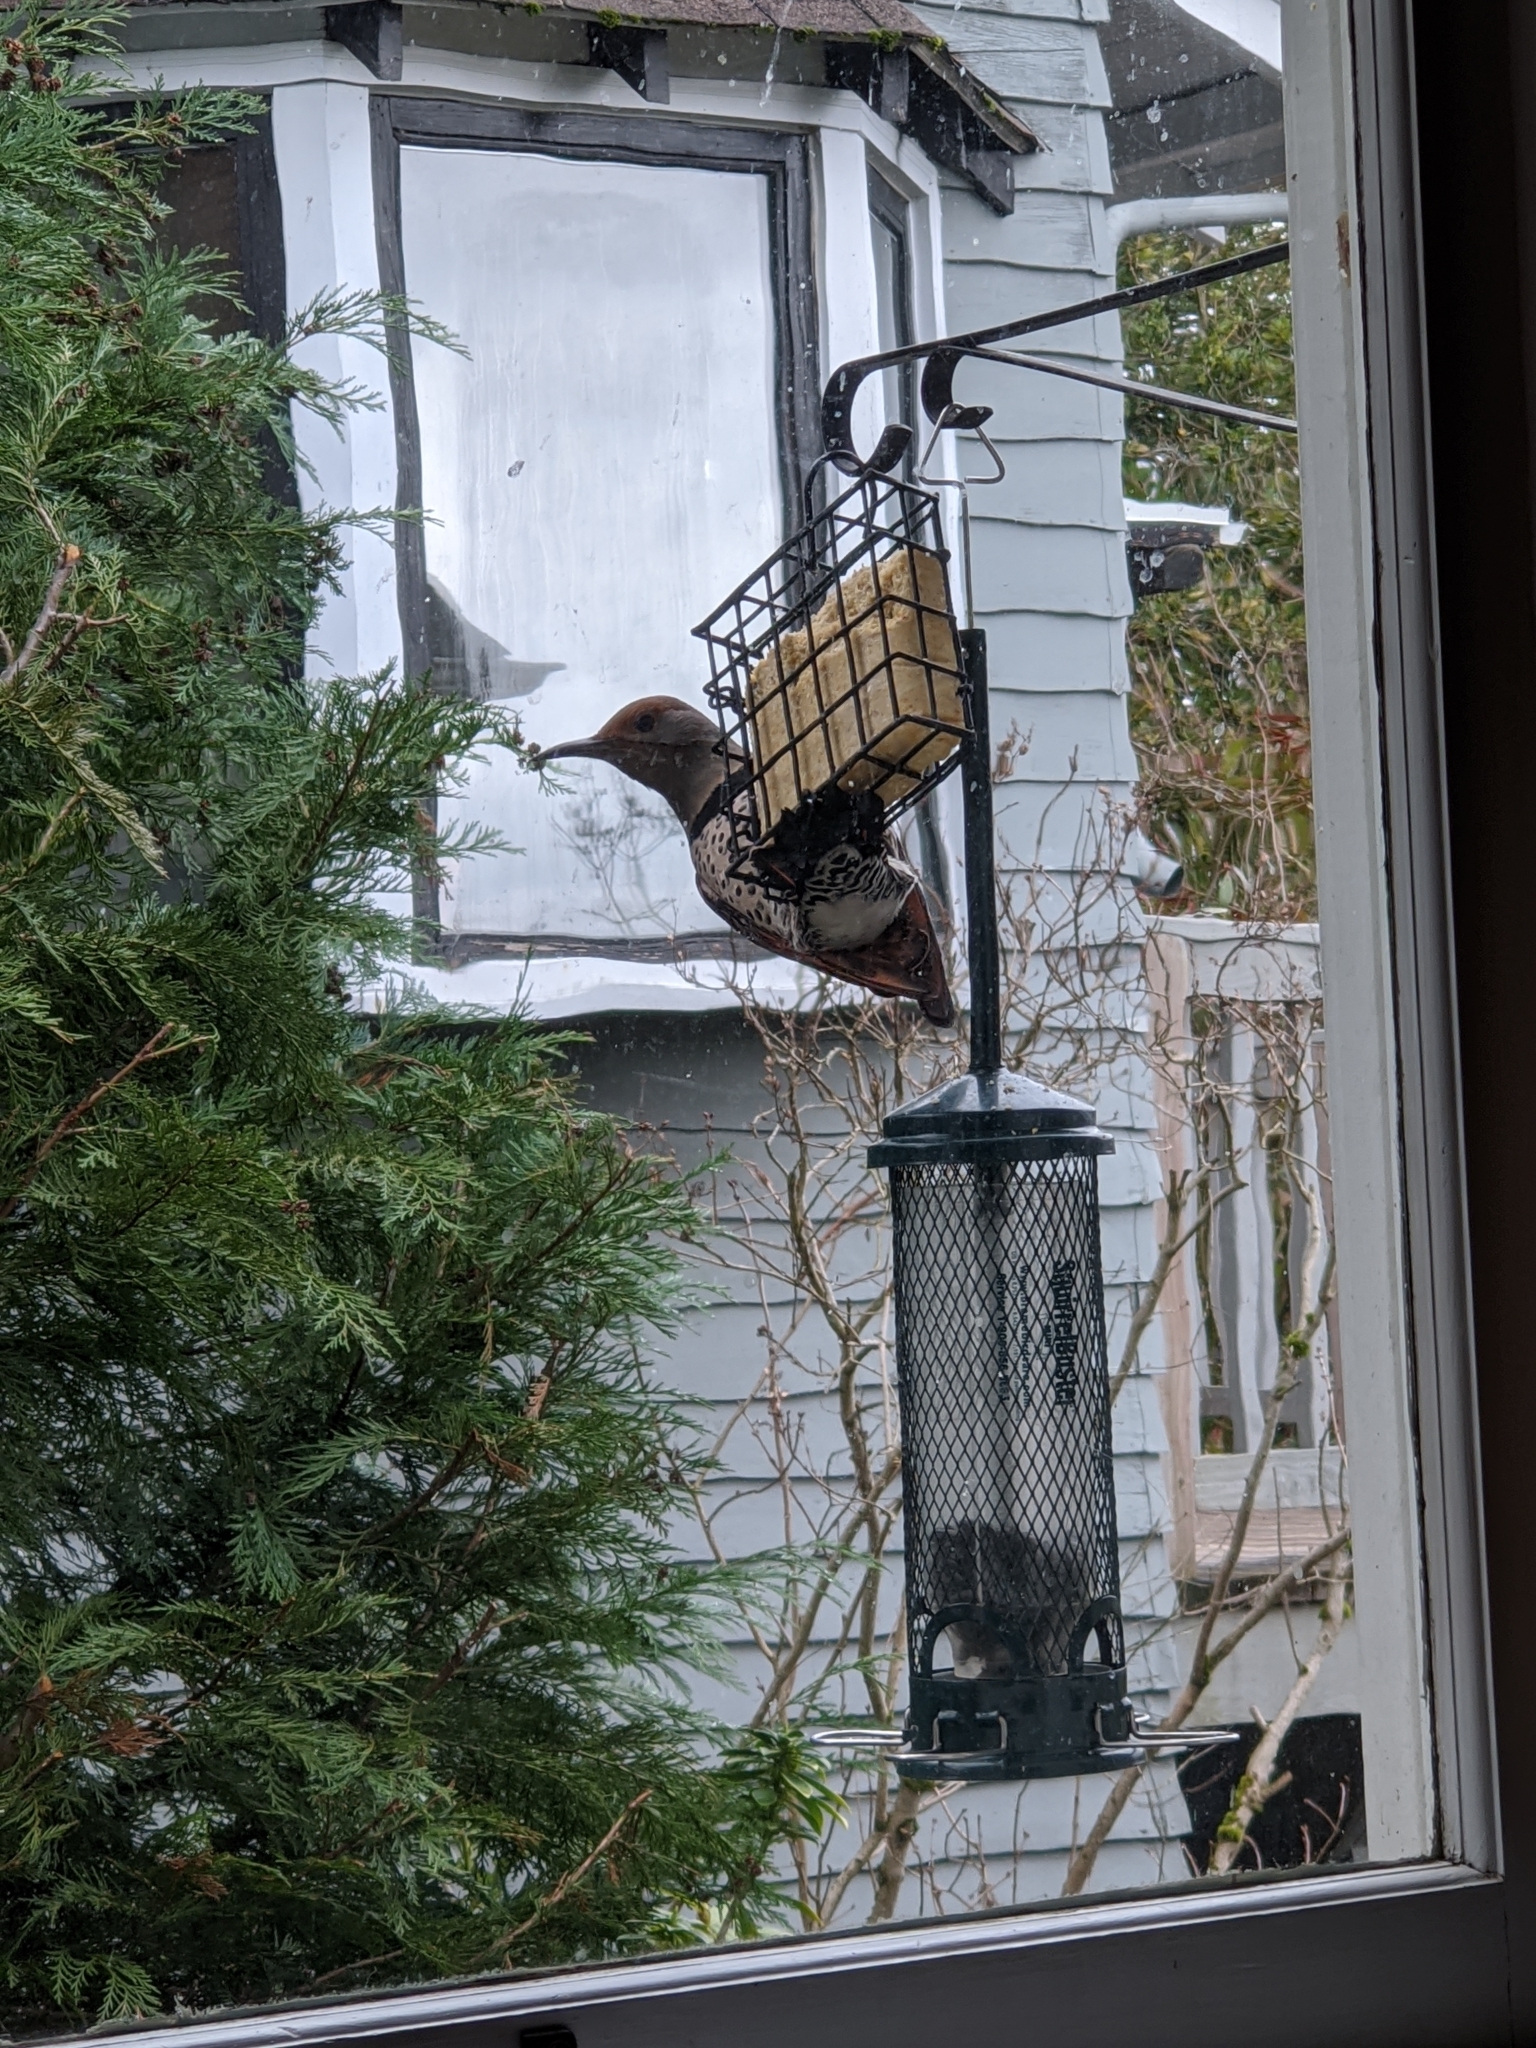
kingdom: Animalia
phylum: Chordata
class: Aves
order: Piciformes
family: Picidae
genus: Colaptes
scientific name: Colaptes auratus
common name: Northern flicker
